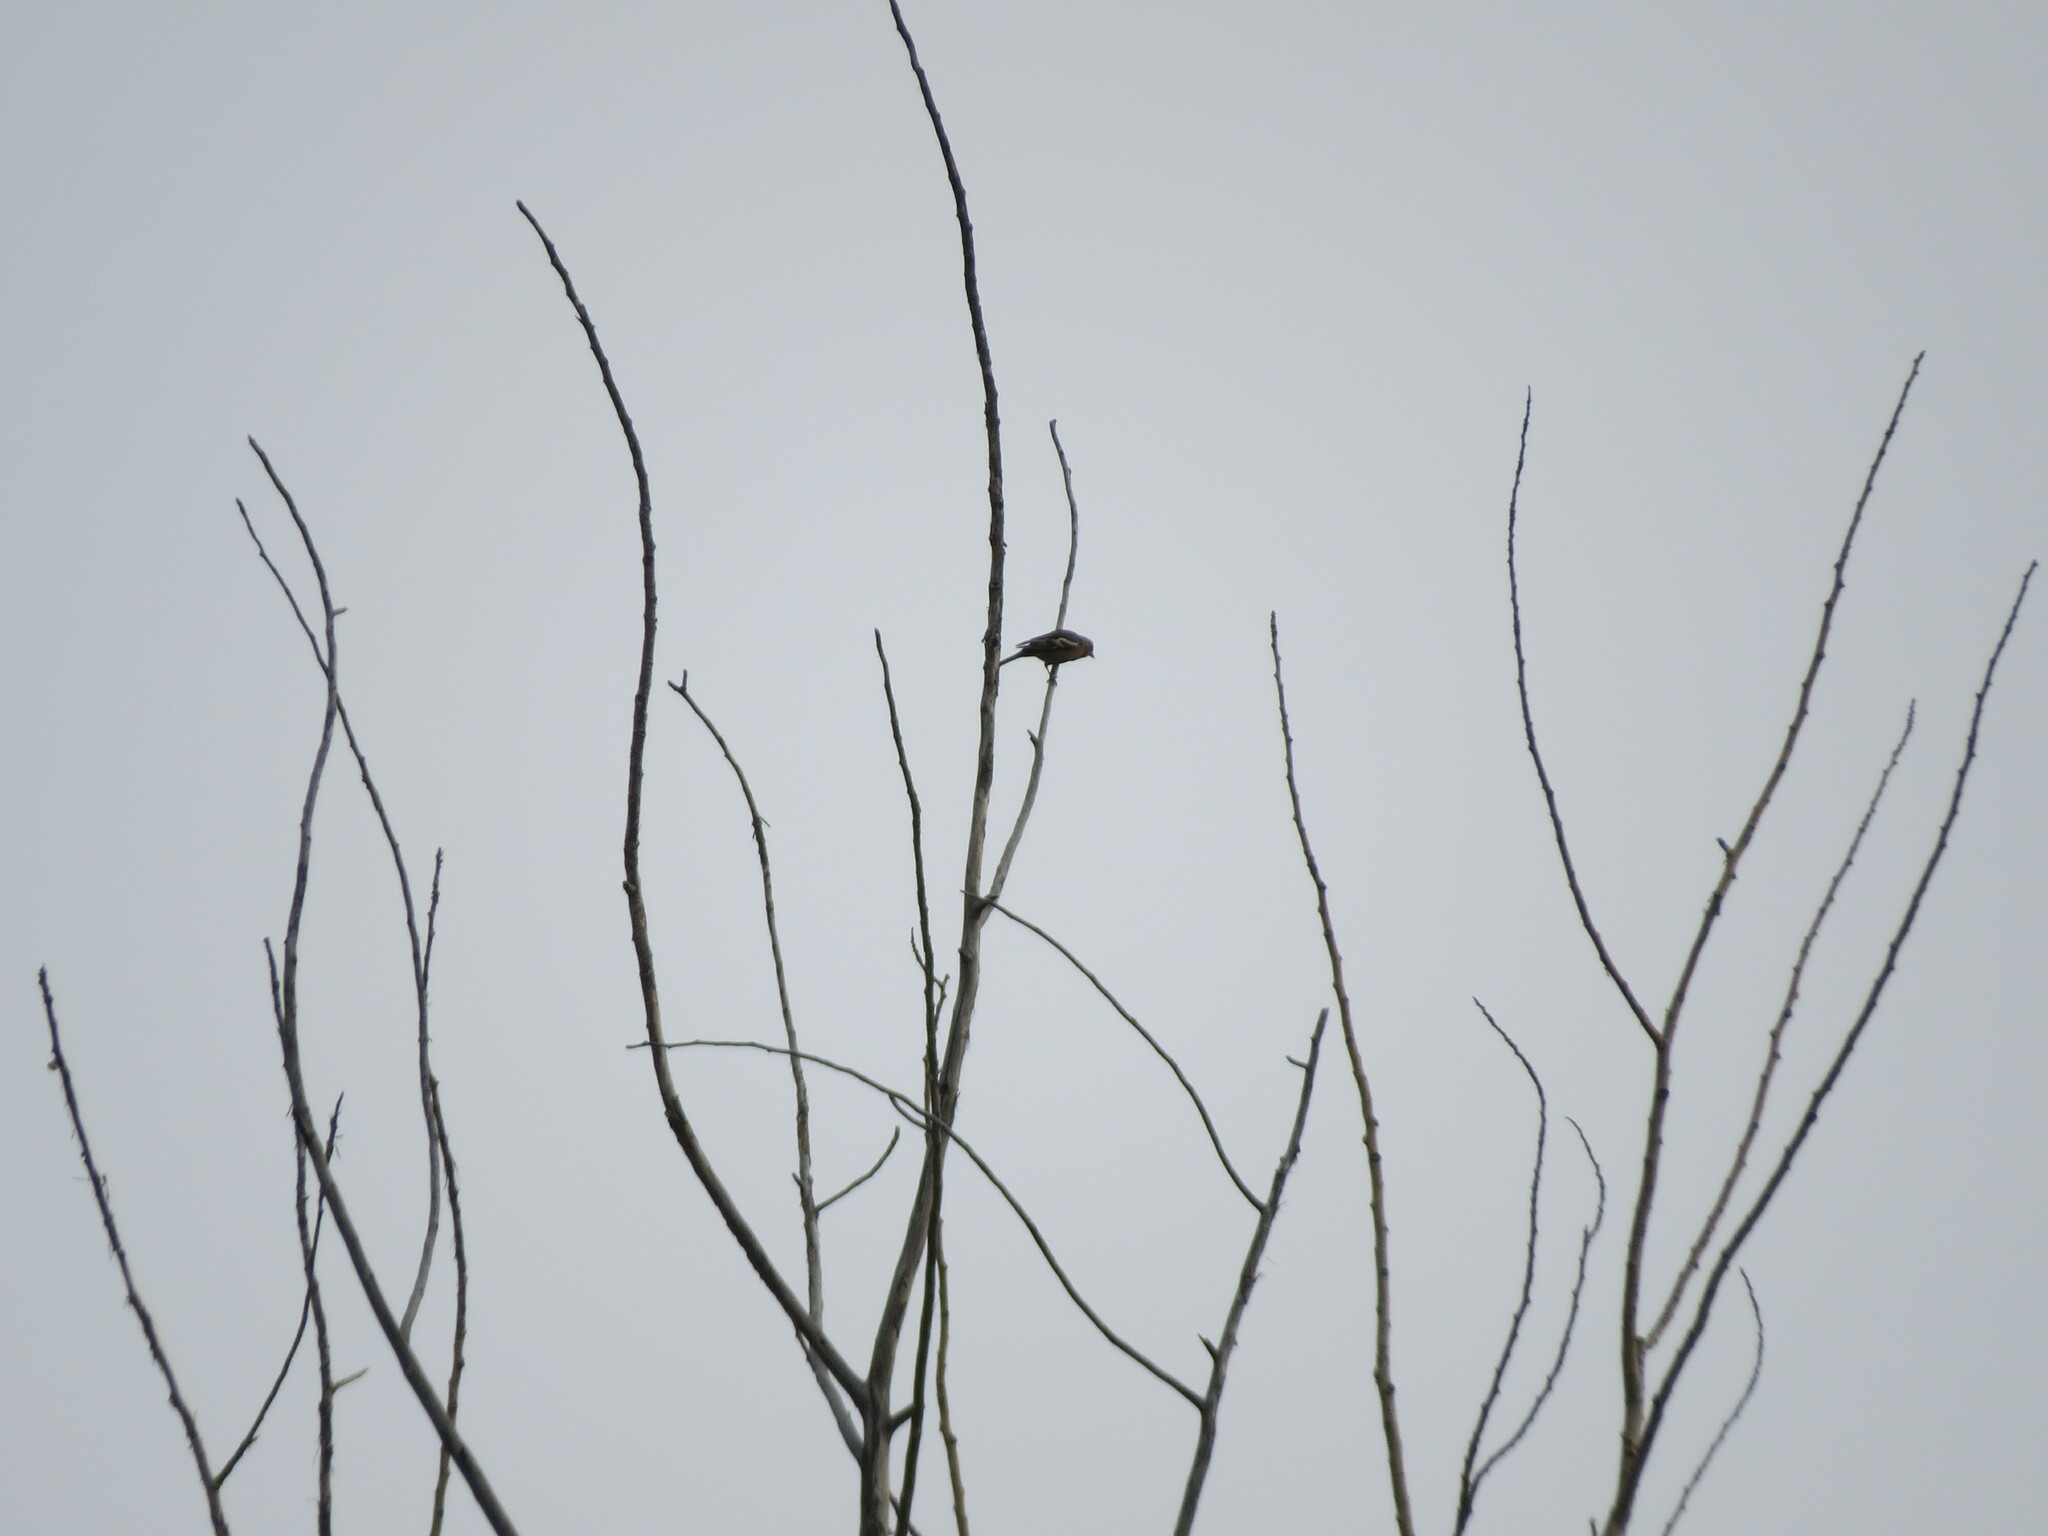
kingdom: Animalia
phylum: Chordata
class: Aves
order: Passeriformes
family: Fringillidae
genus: Fringilla
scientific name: Fringilla coelebs
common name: Common chaffinch
